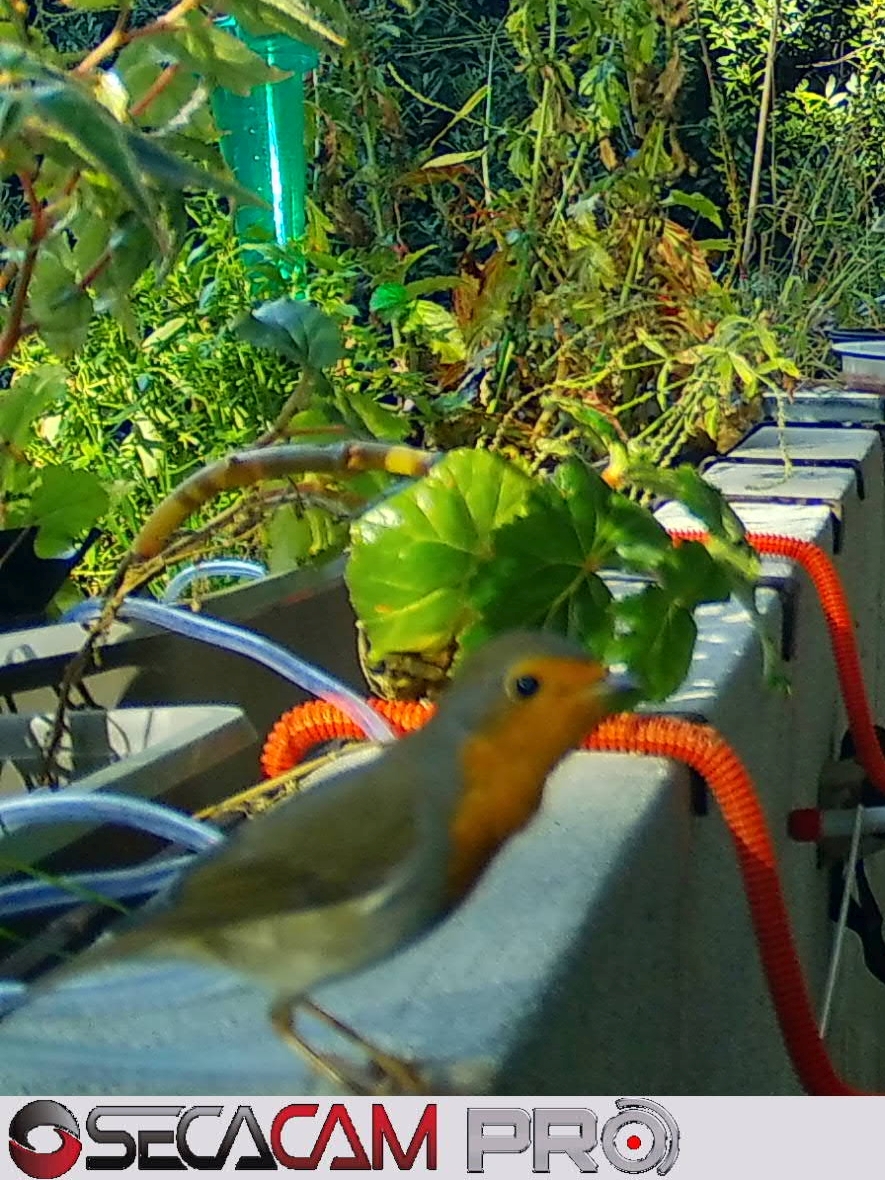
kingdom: Animalia
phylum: Chordata
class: Aves
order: Passeriformes
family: Muscicapidae
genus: Erithacus
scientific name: Erithacus rubecula
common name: European robin
